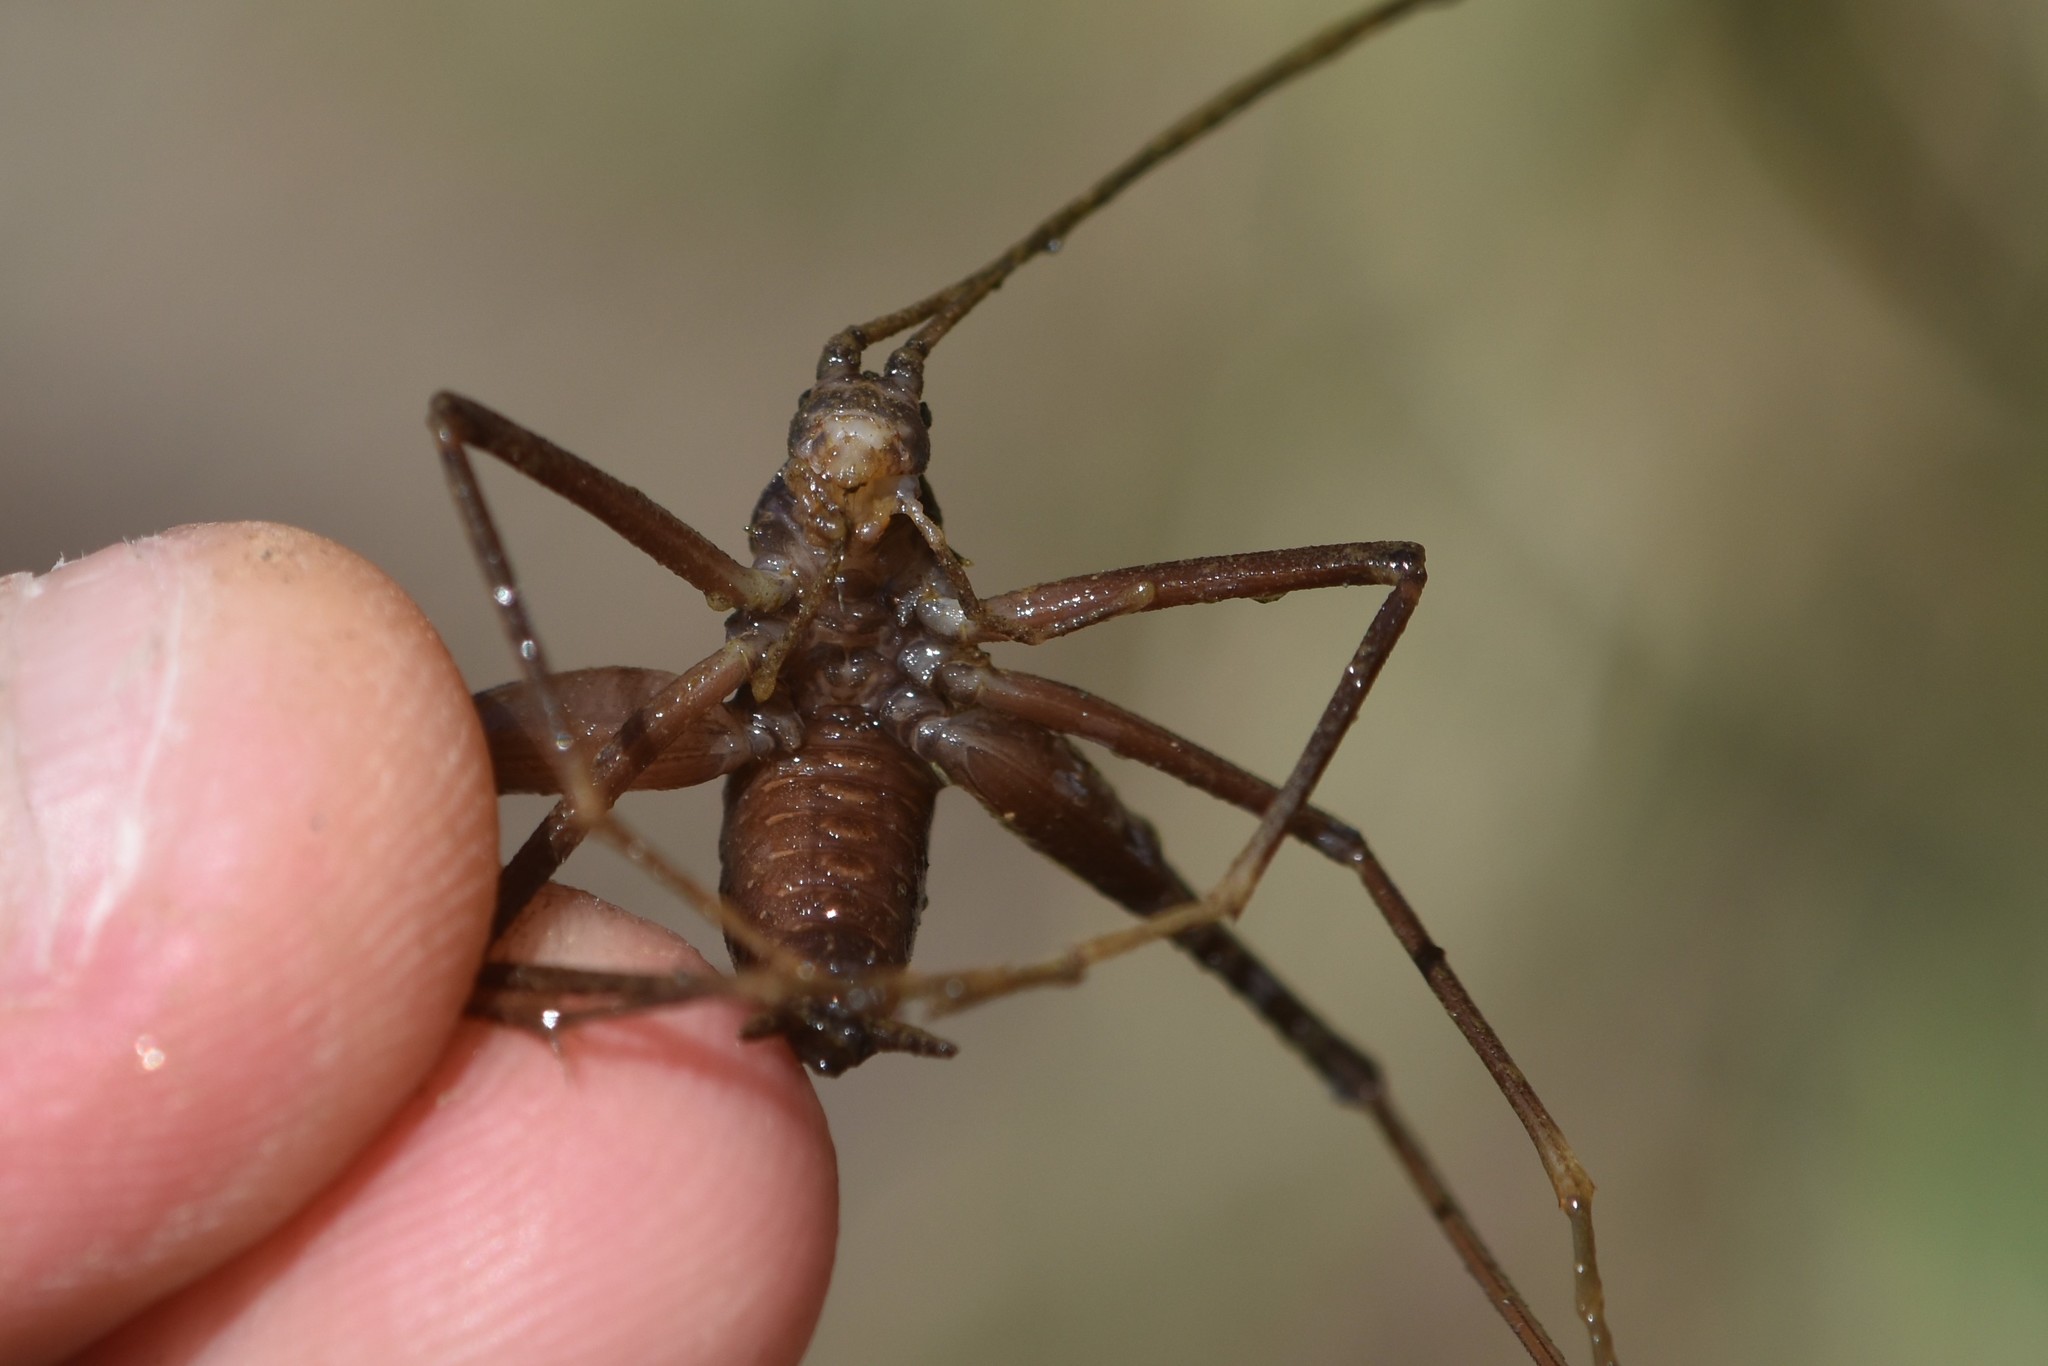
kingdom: Animalia
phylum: Arthropoda
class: Insecta
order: Orthoptera
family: Rhaphidophoridae
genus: Tropidischia
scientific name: Tropidischia xanthostoma
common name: Square-legged camel cricket
